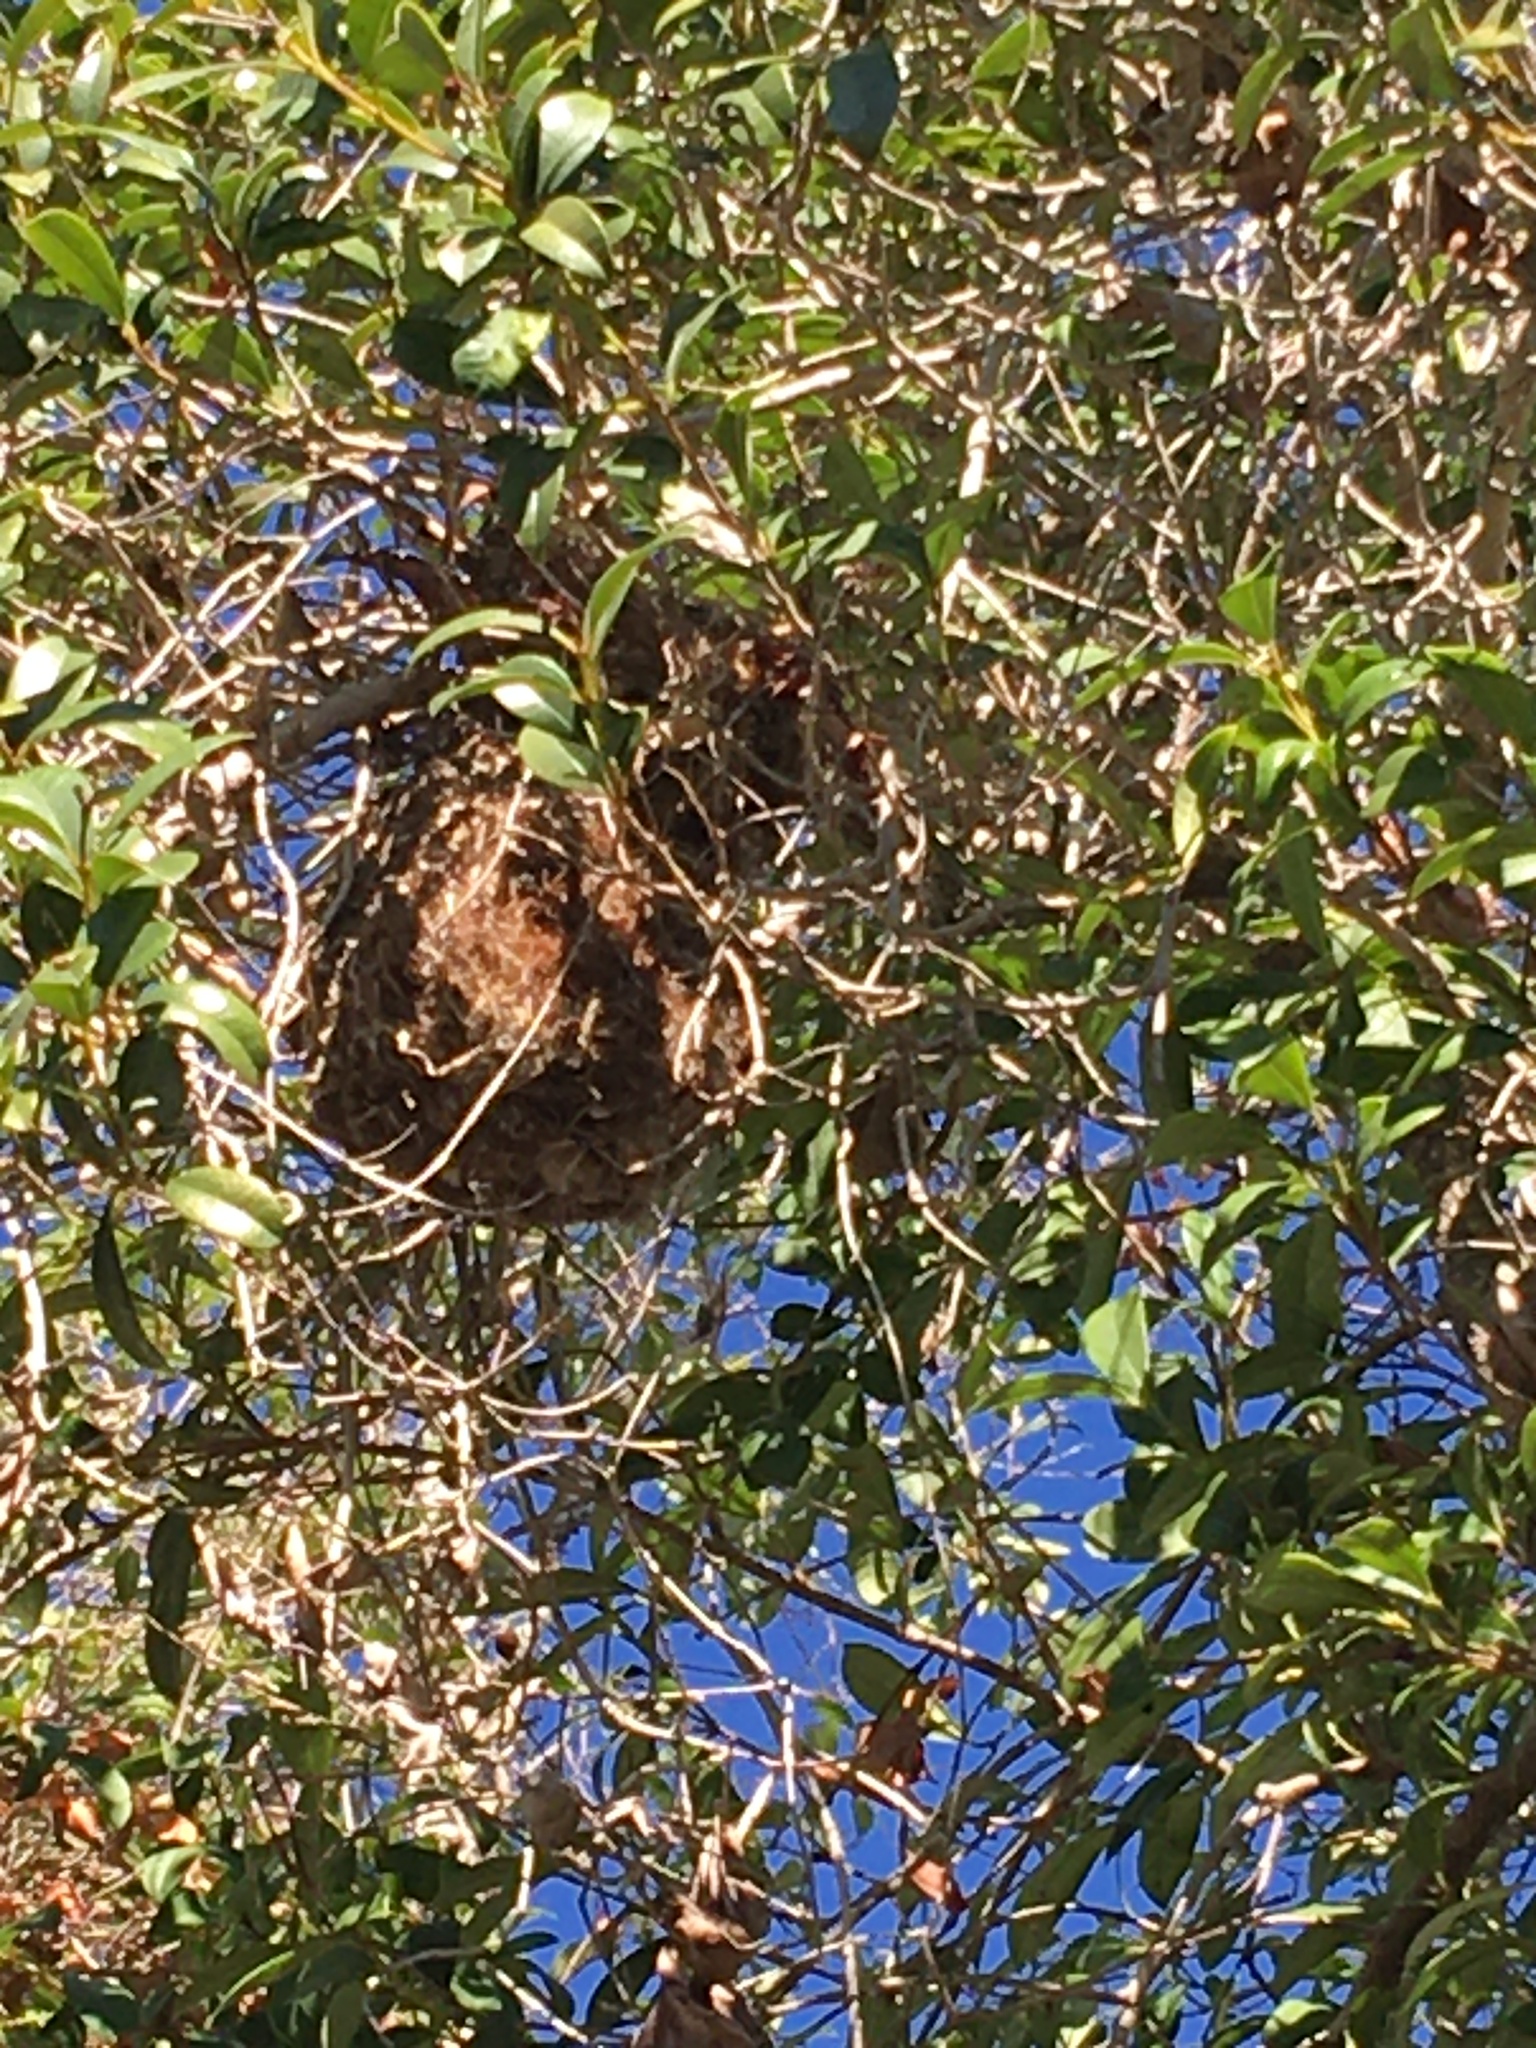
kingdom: Animalia
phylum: Chordata
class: Aves
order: Passeriformes
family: Aegithalidae
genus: Psaltriparus
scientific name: Psaltriparus minimus
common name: American bushtit
